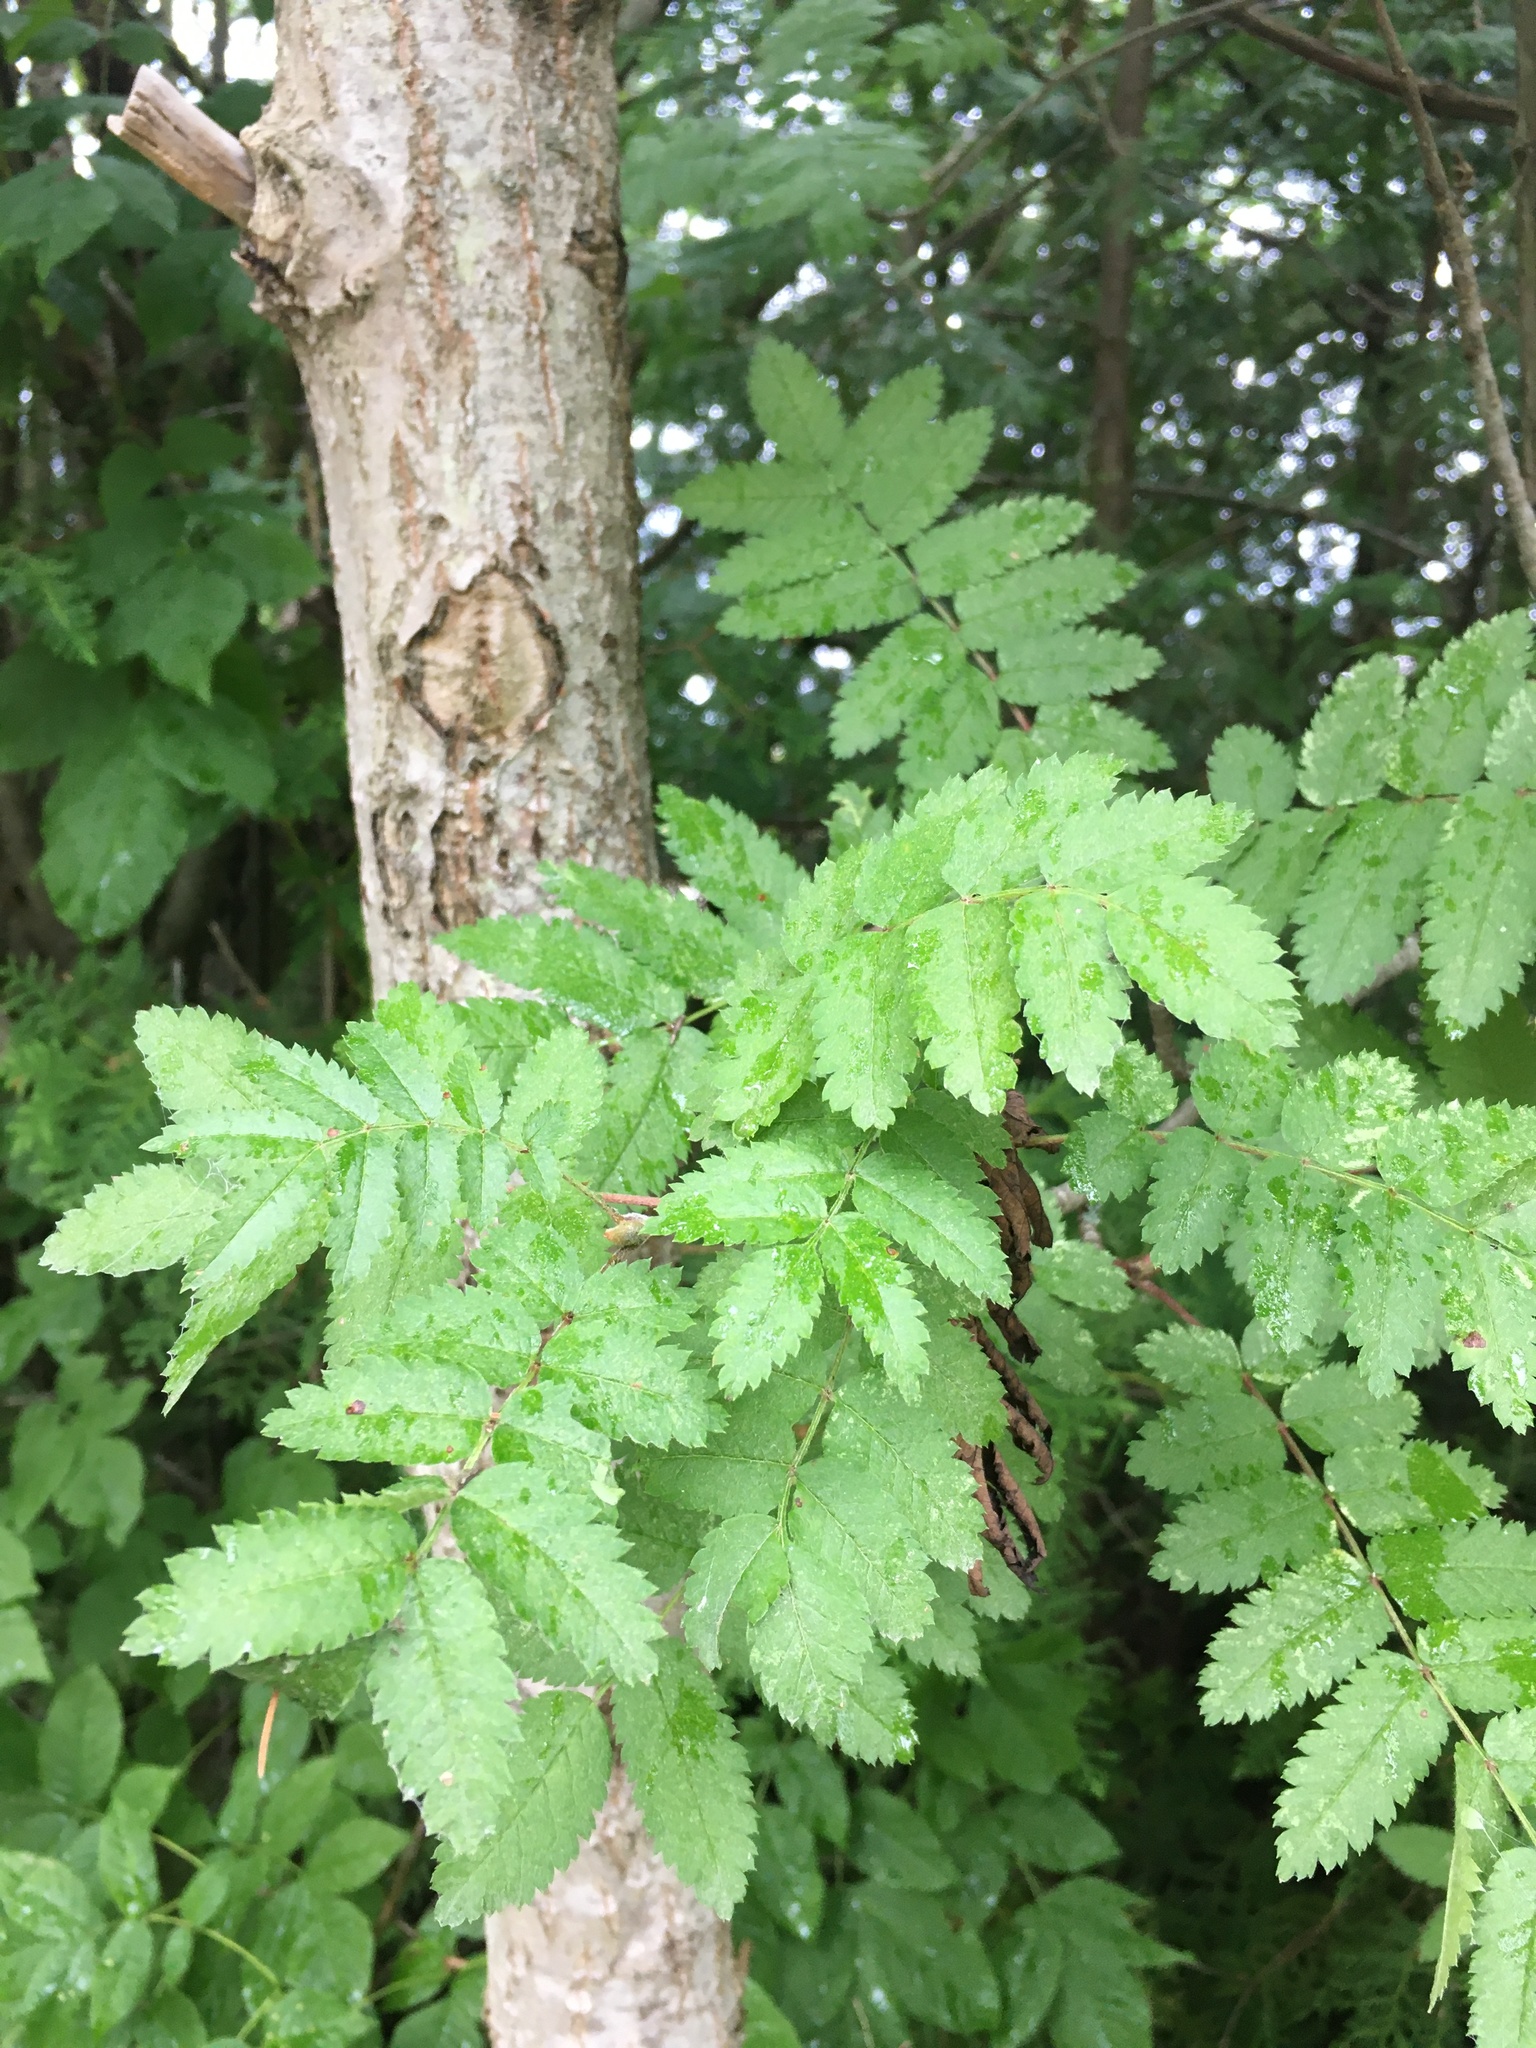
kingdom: Plantae
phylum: Tracheophyta
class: Magnoliopsida
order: Rosales
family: Rosaceae
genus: Sorbus
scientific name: Sorbus aucuparia
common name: Rowan
